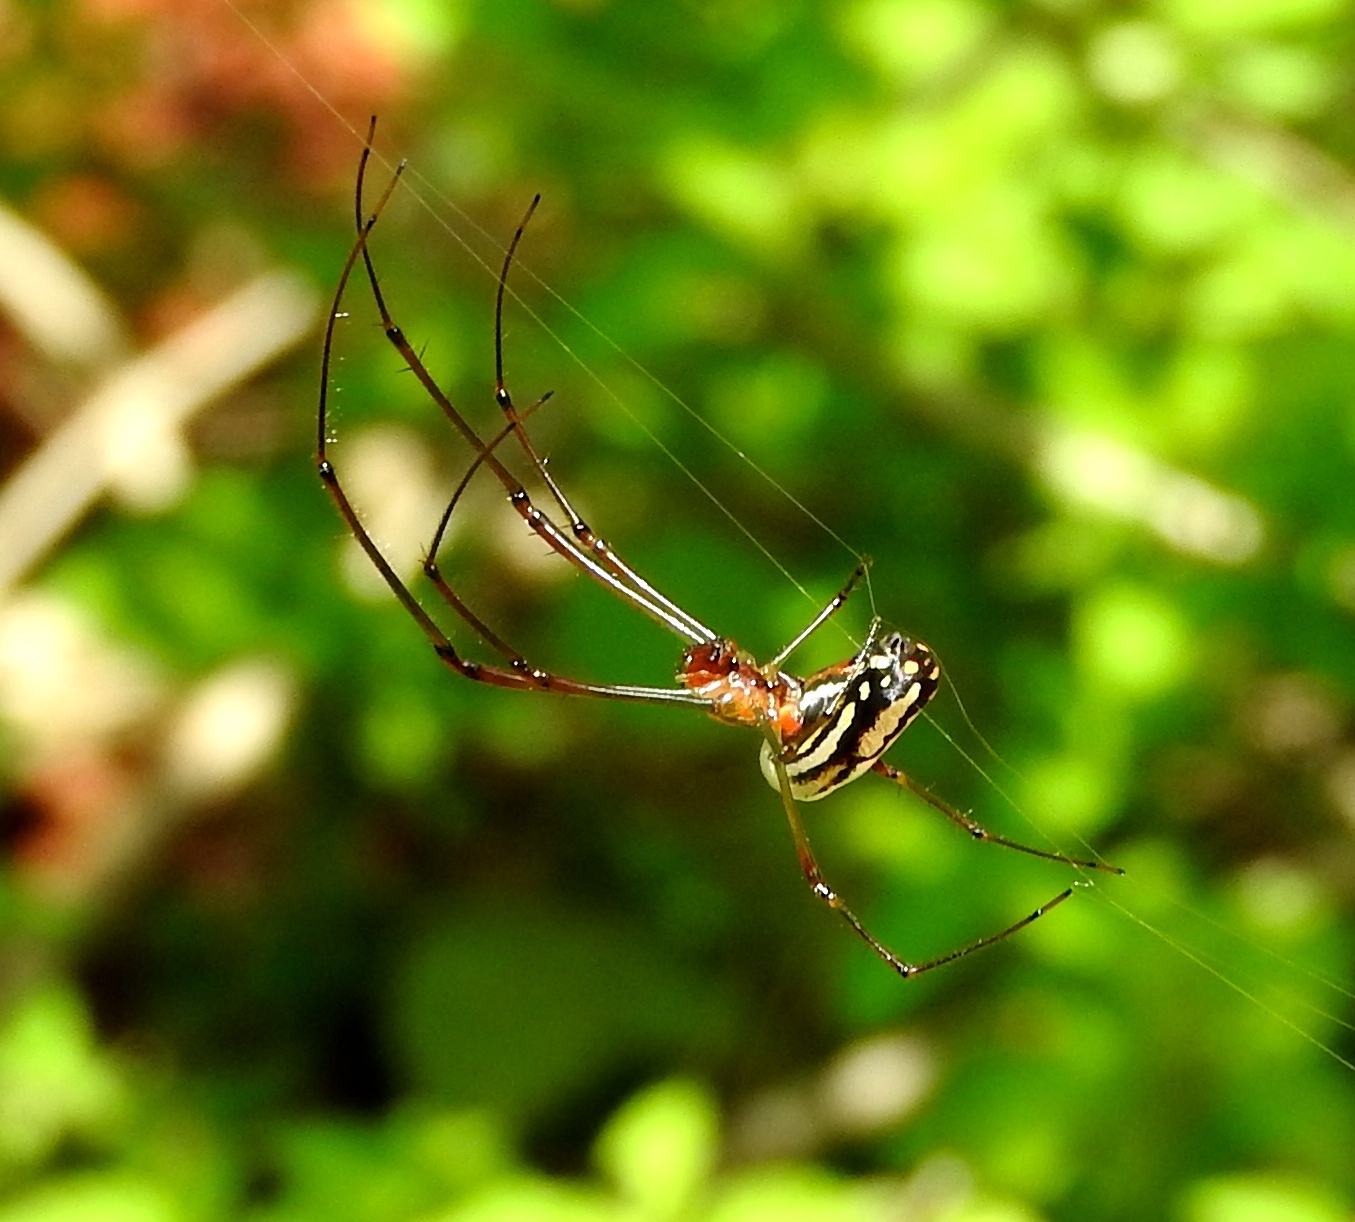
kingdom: Animalia
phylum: Arthropoda
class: Arachnida
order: Araneae
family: Tetragnathidae
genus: Leucauge
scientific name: Leucauge
